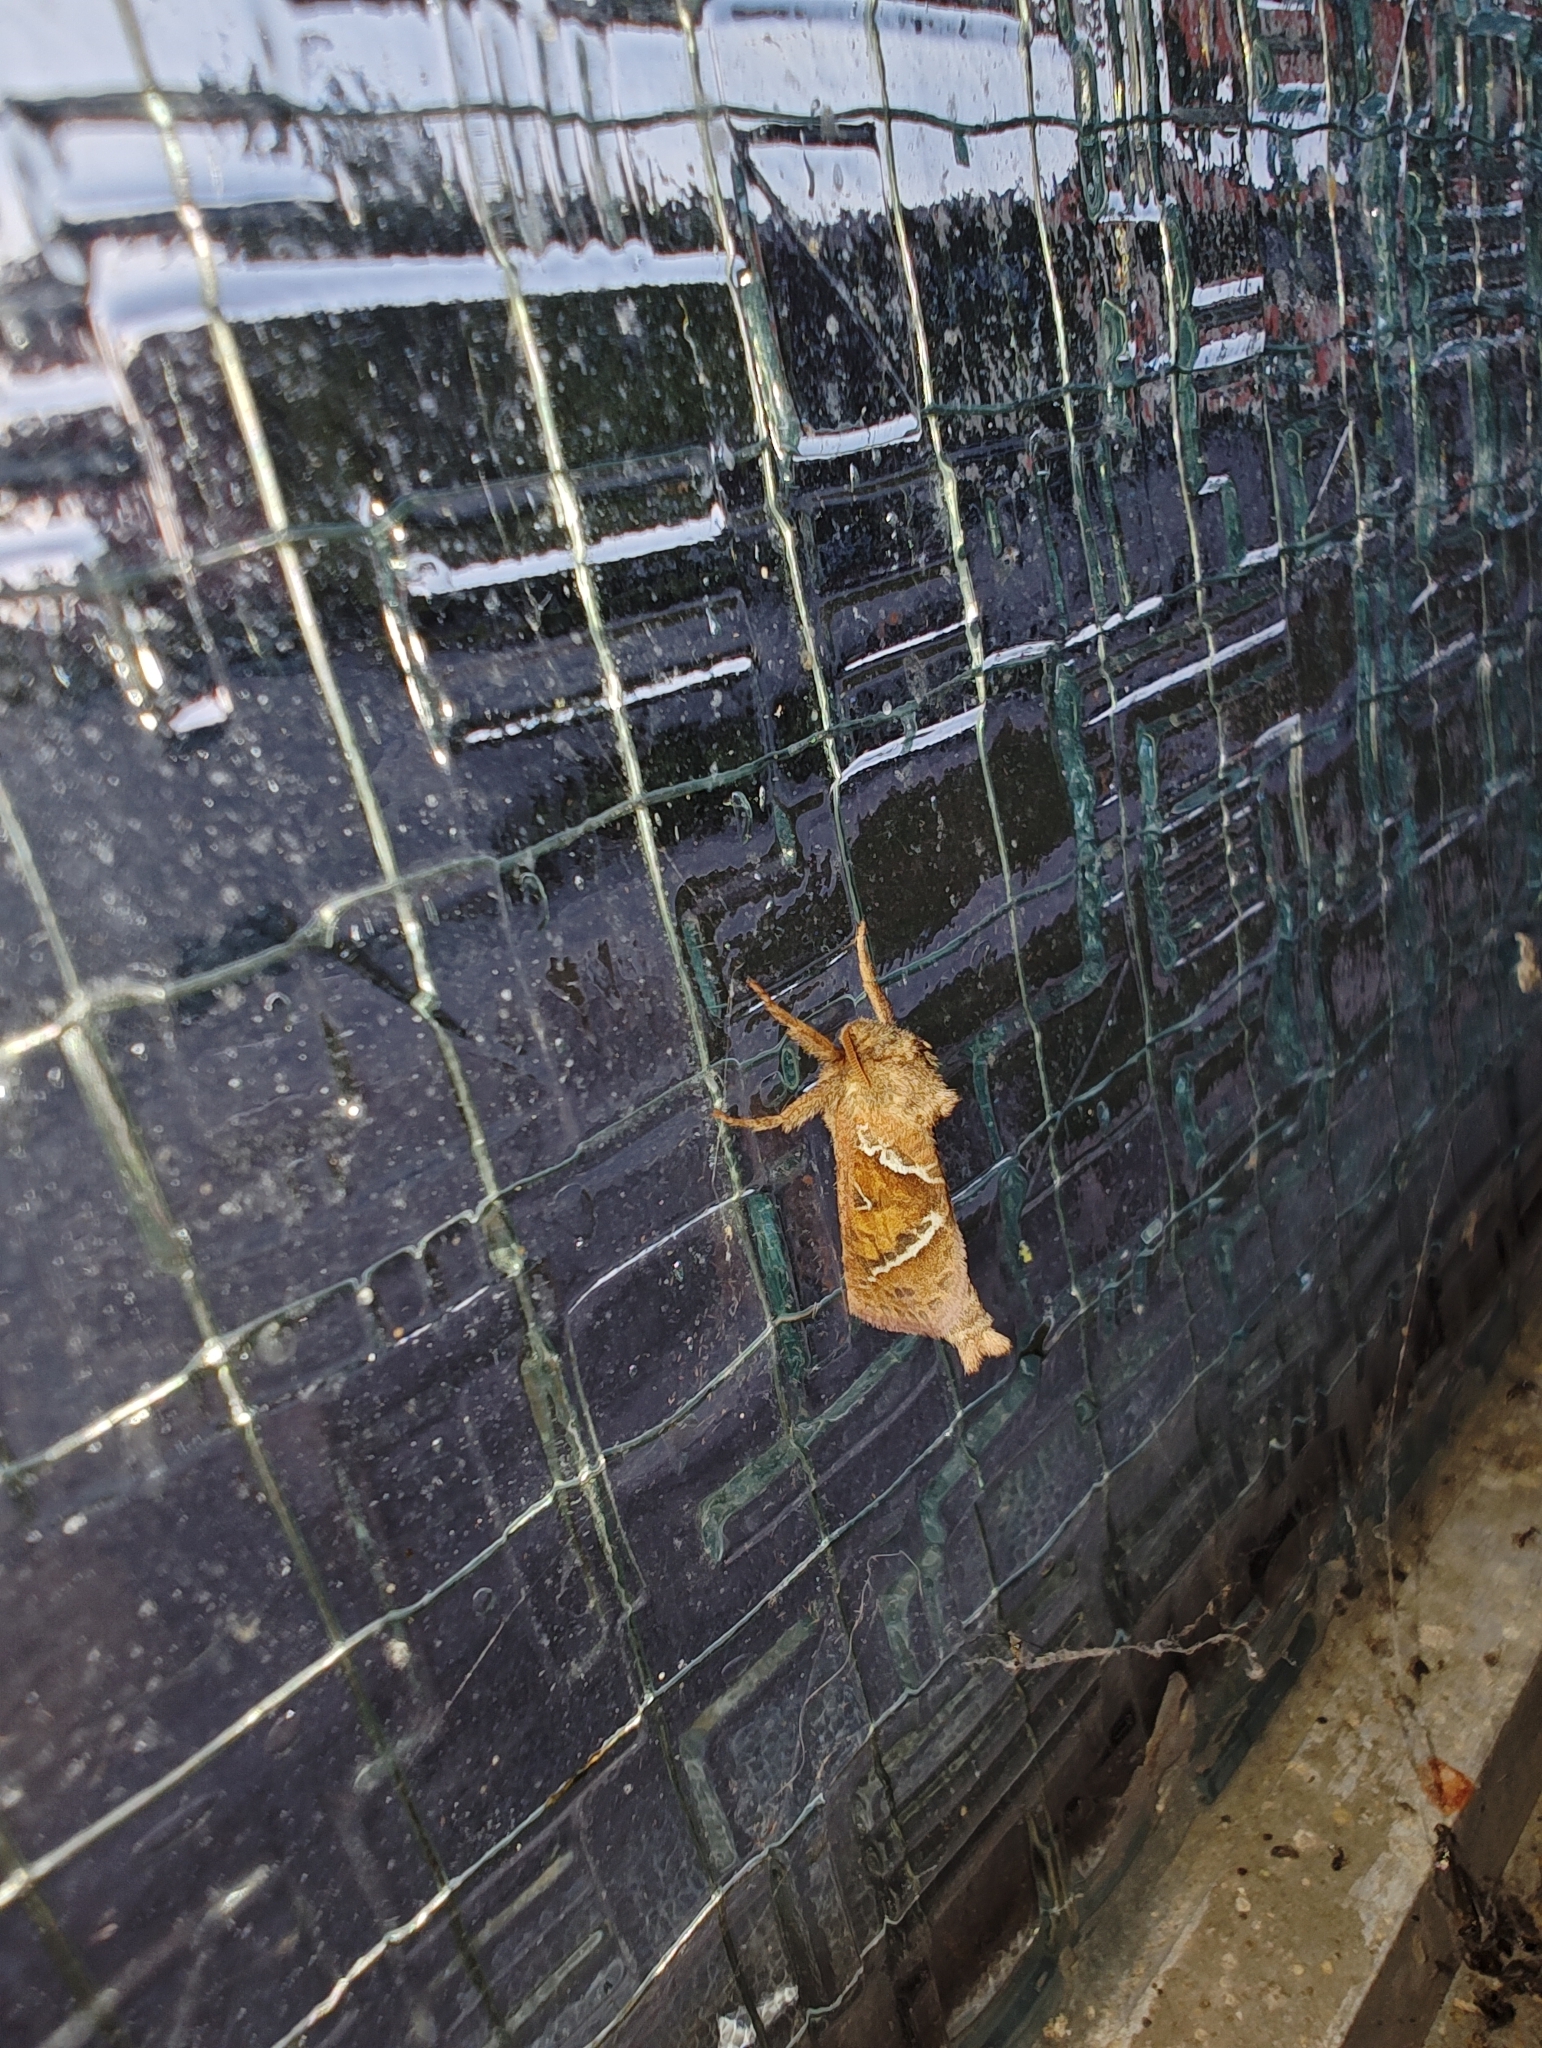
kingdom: Animalia
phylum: Arthropoda
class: Insecta
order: Lepidoptera
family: Hepialidae
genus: Triodia
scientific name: Triodia sylvina
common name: Orange swift
